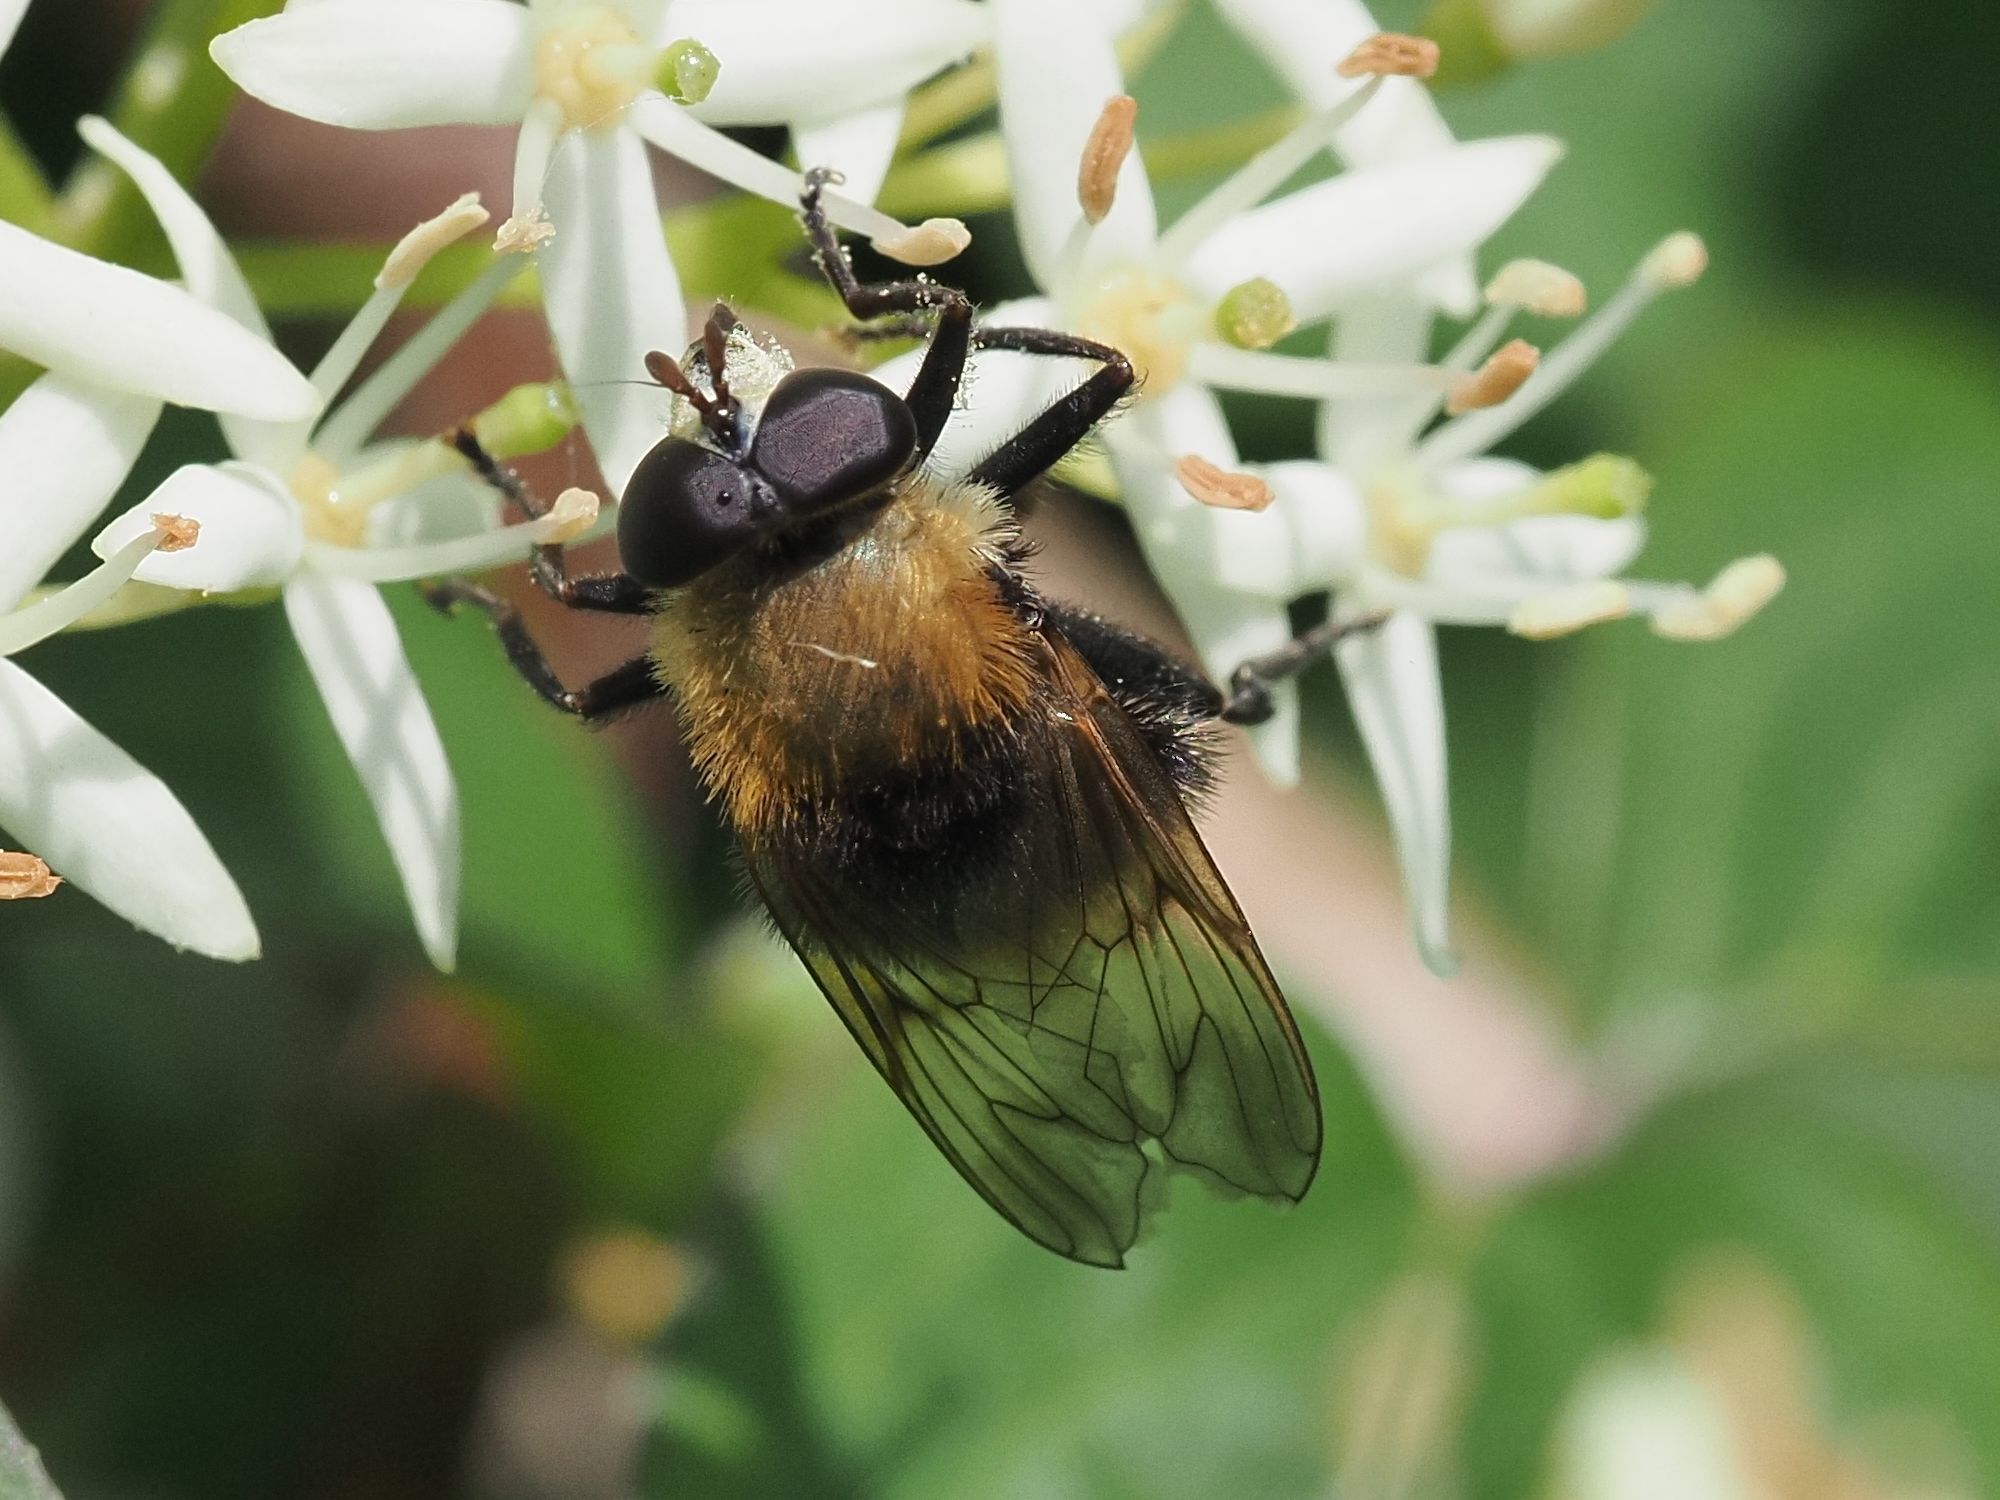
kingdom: Animalia
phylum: Arthropoda
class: Insecta
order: Diptera
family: Syrphidae
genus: Criorhina
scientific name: Criorhina berberina
